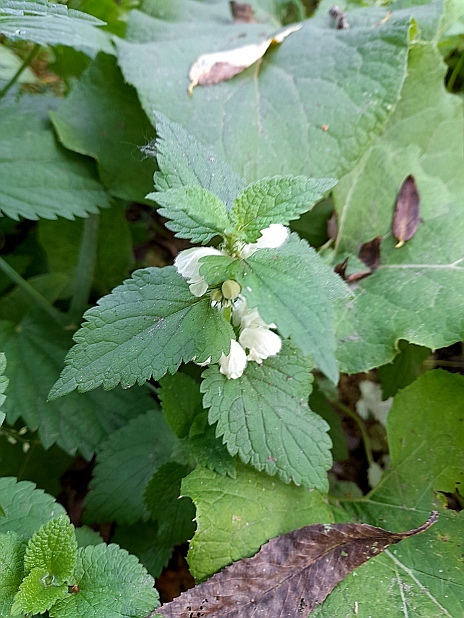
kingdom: Plantae
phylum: Tracheophyta
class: Magnoliopsida
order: Lamiales
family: Lamiaceae
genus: Lamium
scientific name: Lamium album
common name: White dead-nettle
